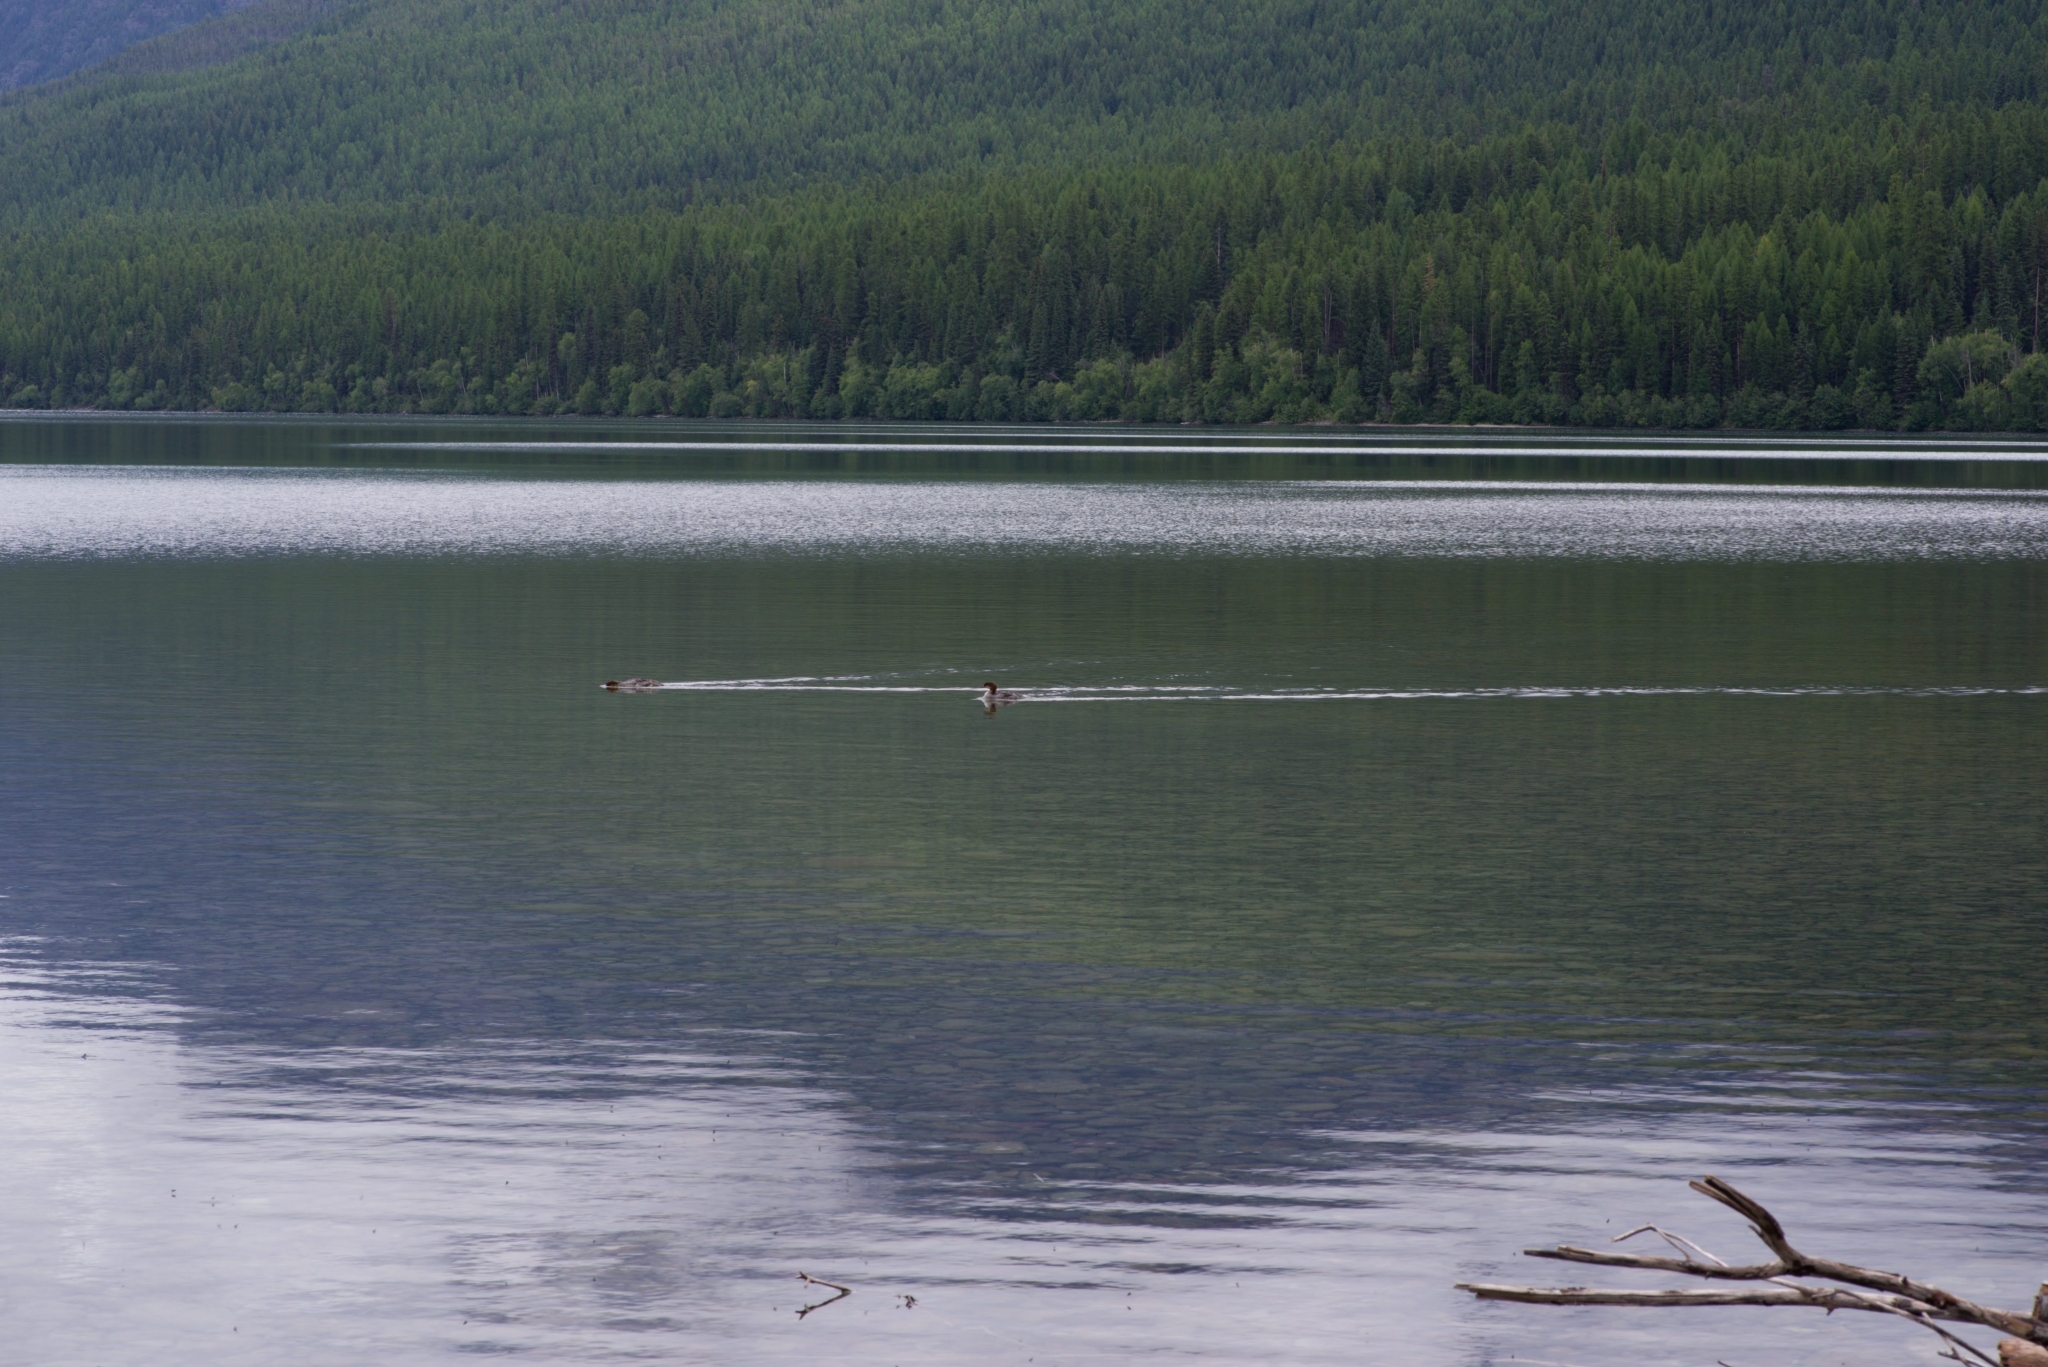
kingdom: Animalia
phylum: Chordata
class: Aves
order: Anseriformes
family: Anatidae
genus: Mergus
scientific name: Mergus merganser
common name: Common merganser
